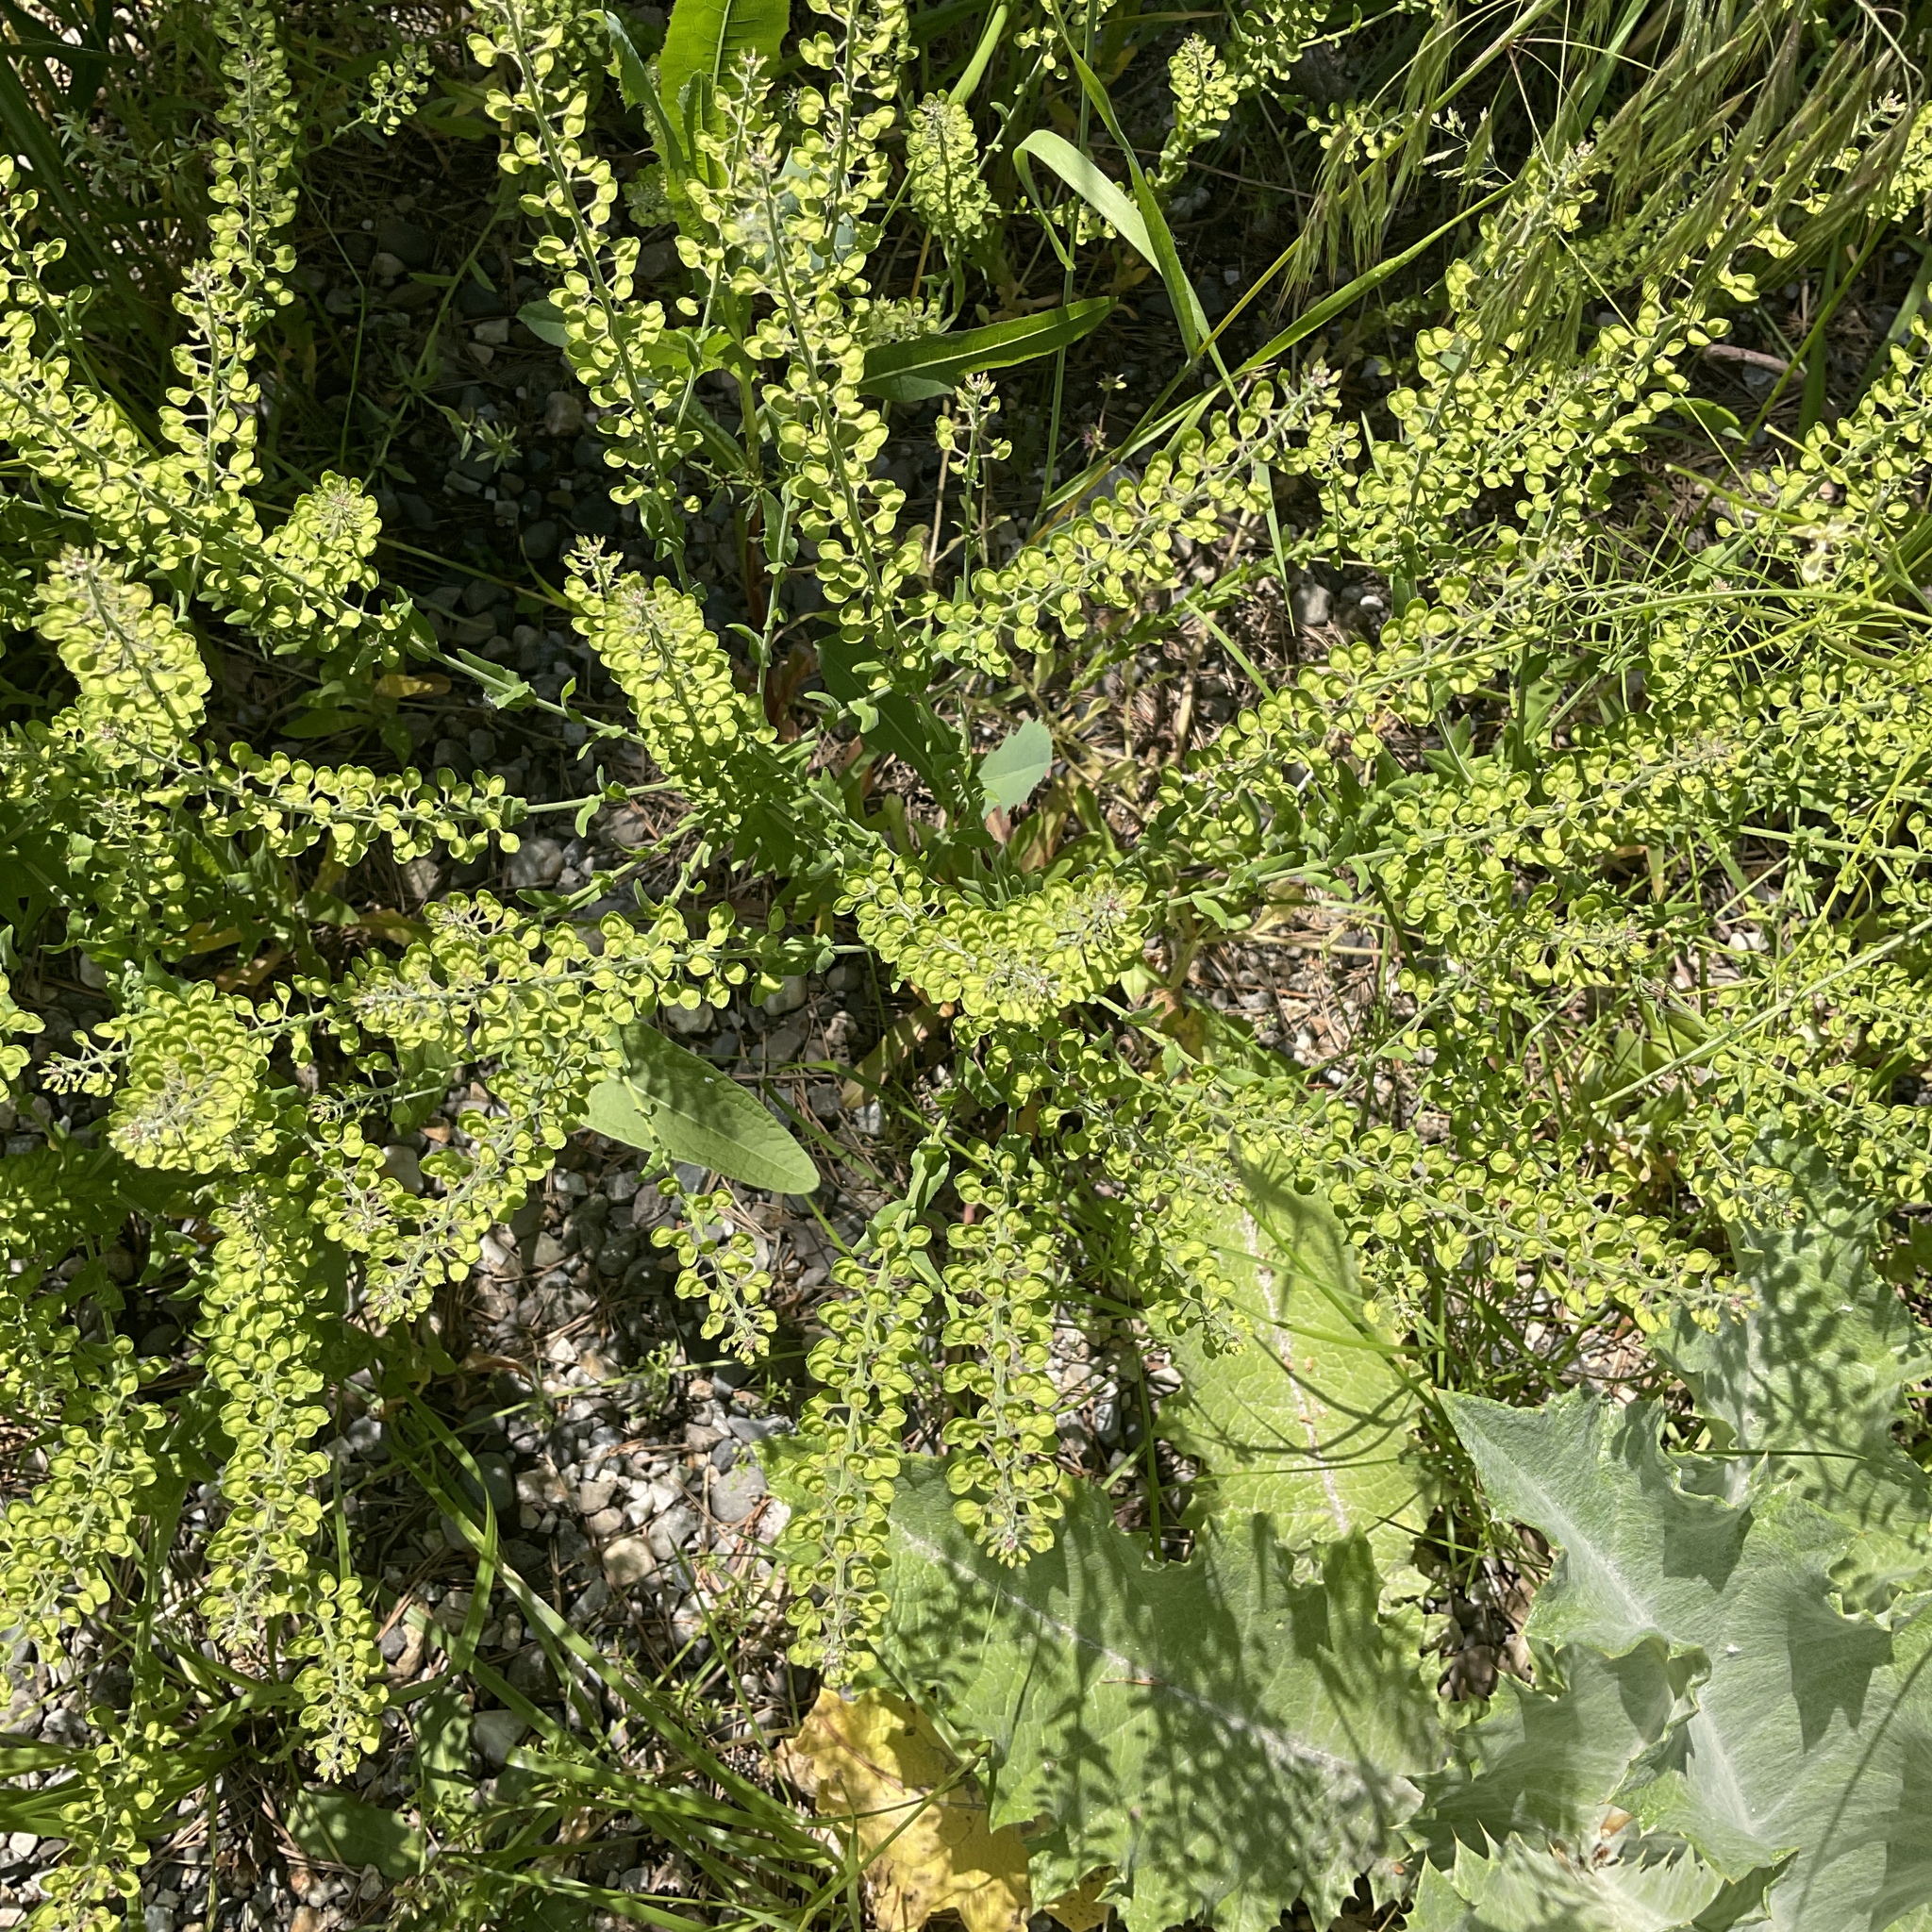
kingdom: Plantae
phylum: Tracheophyta
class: Magnoliopsida
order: Brassicales
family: Brassicaceae
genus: Lepidium
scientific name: Lepidium campestre
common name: Field pepperwort
